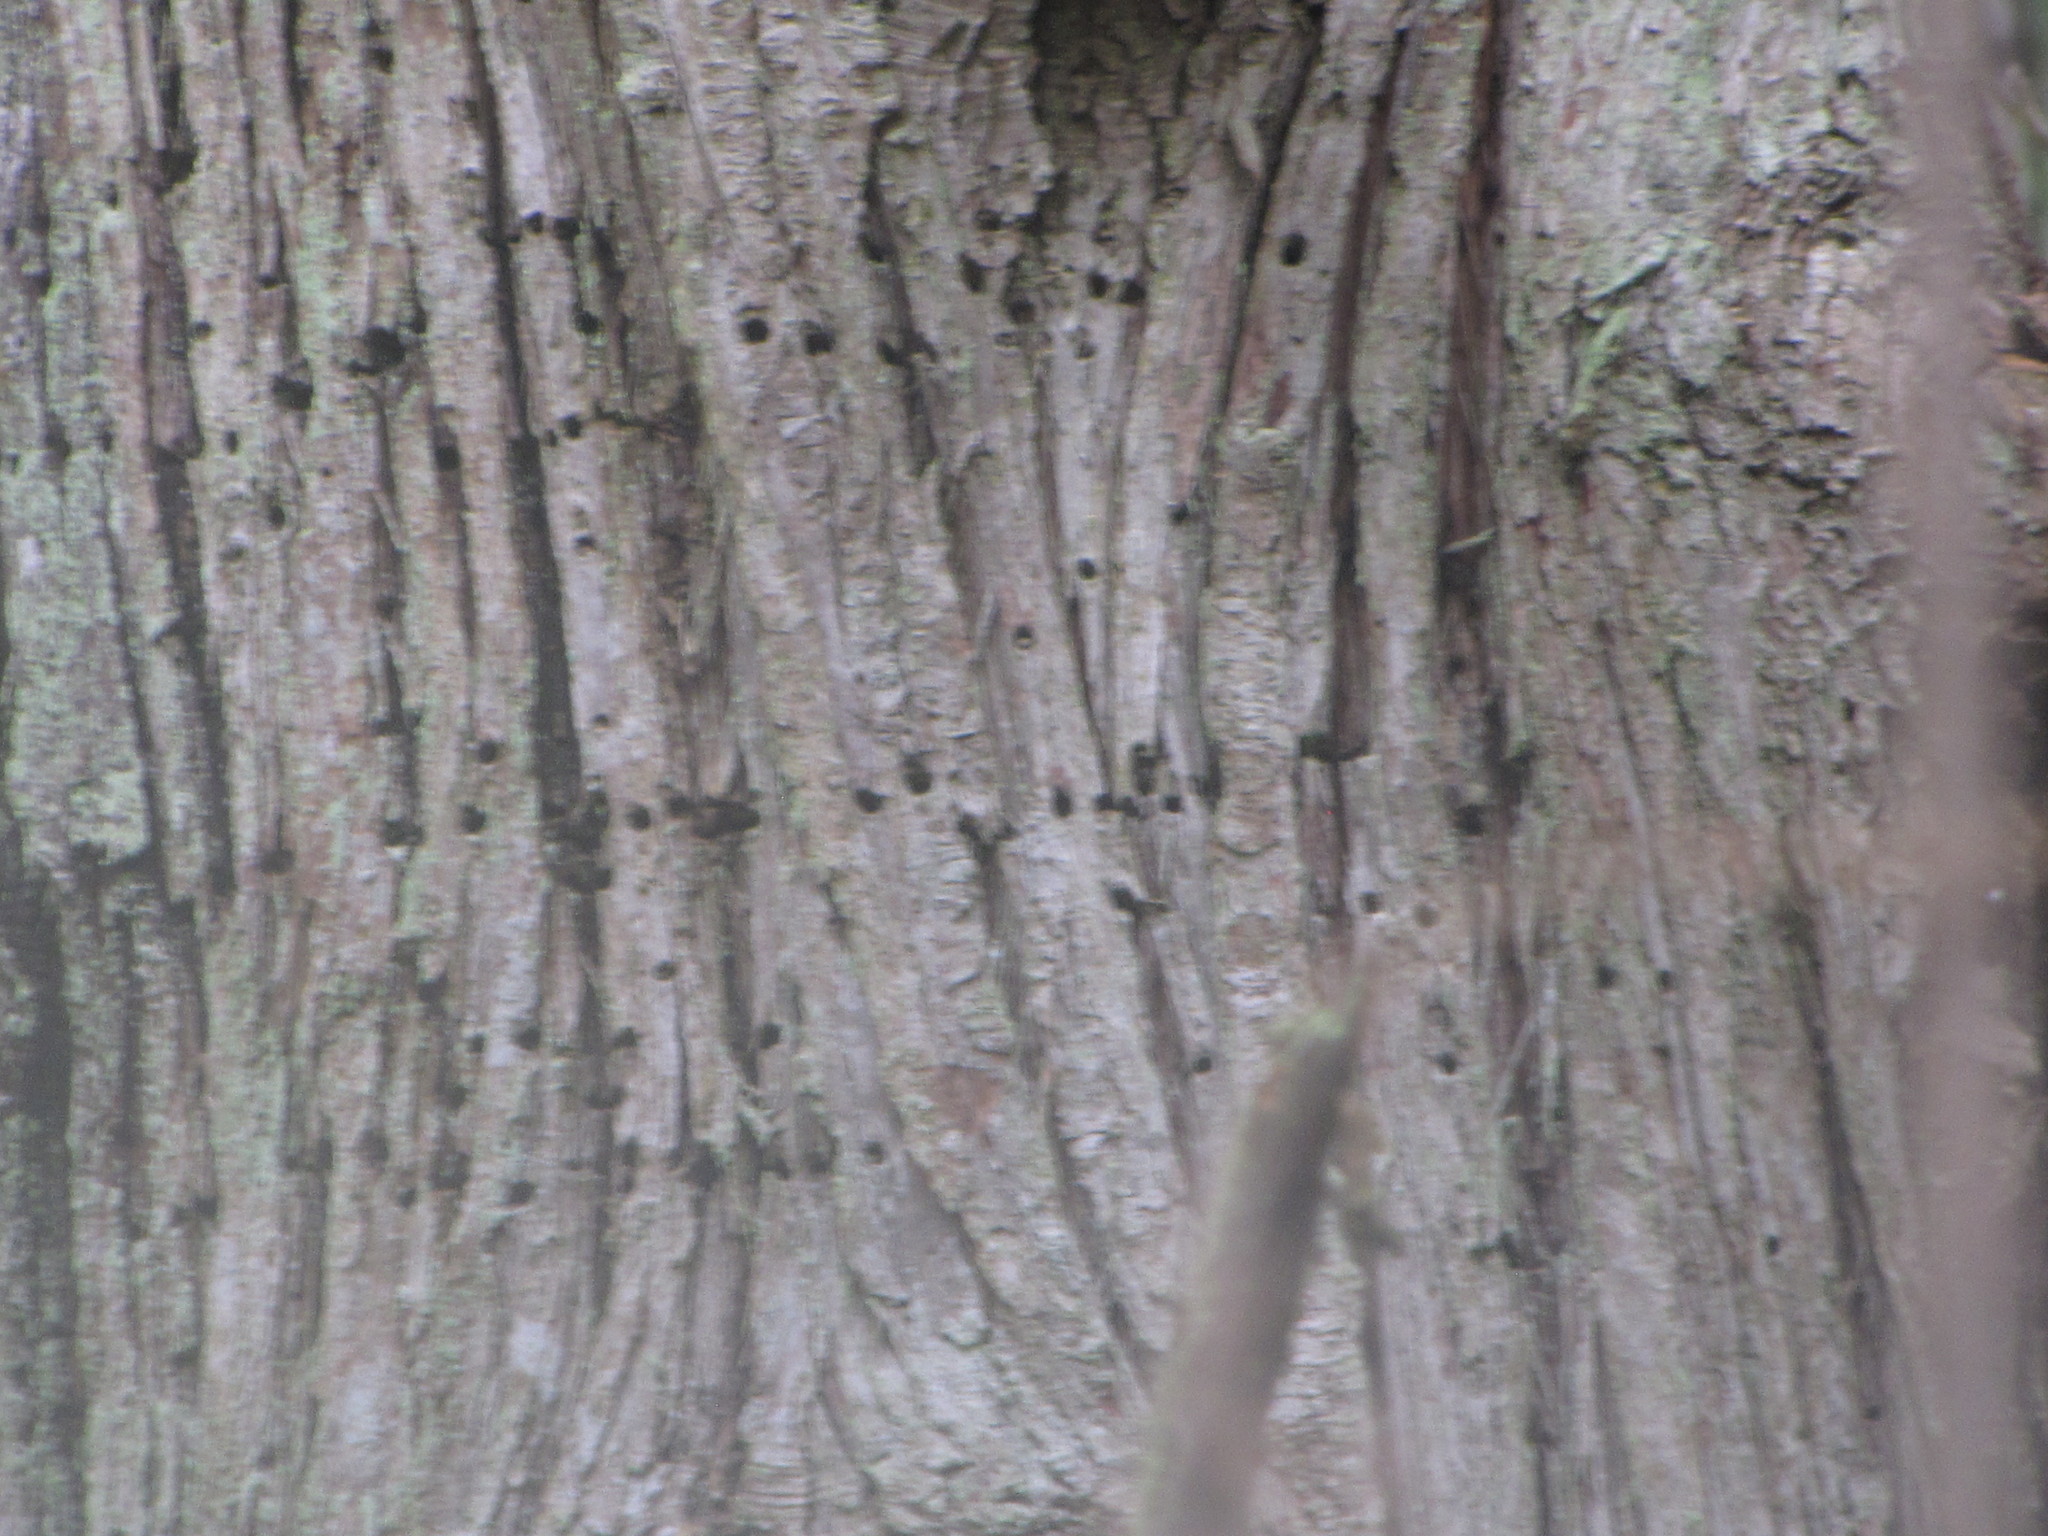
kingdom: Animalia
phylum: Chordata
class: Aves
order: Piciformes
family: Picidae
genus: Sphyrapicus
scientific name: Sphyrapicus ruber
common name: Red-breasted sapsucker
